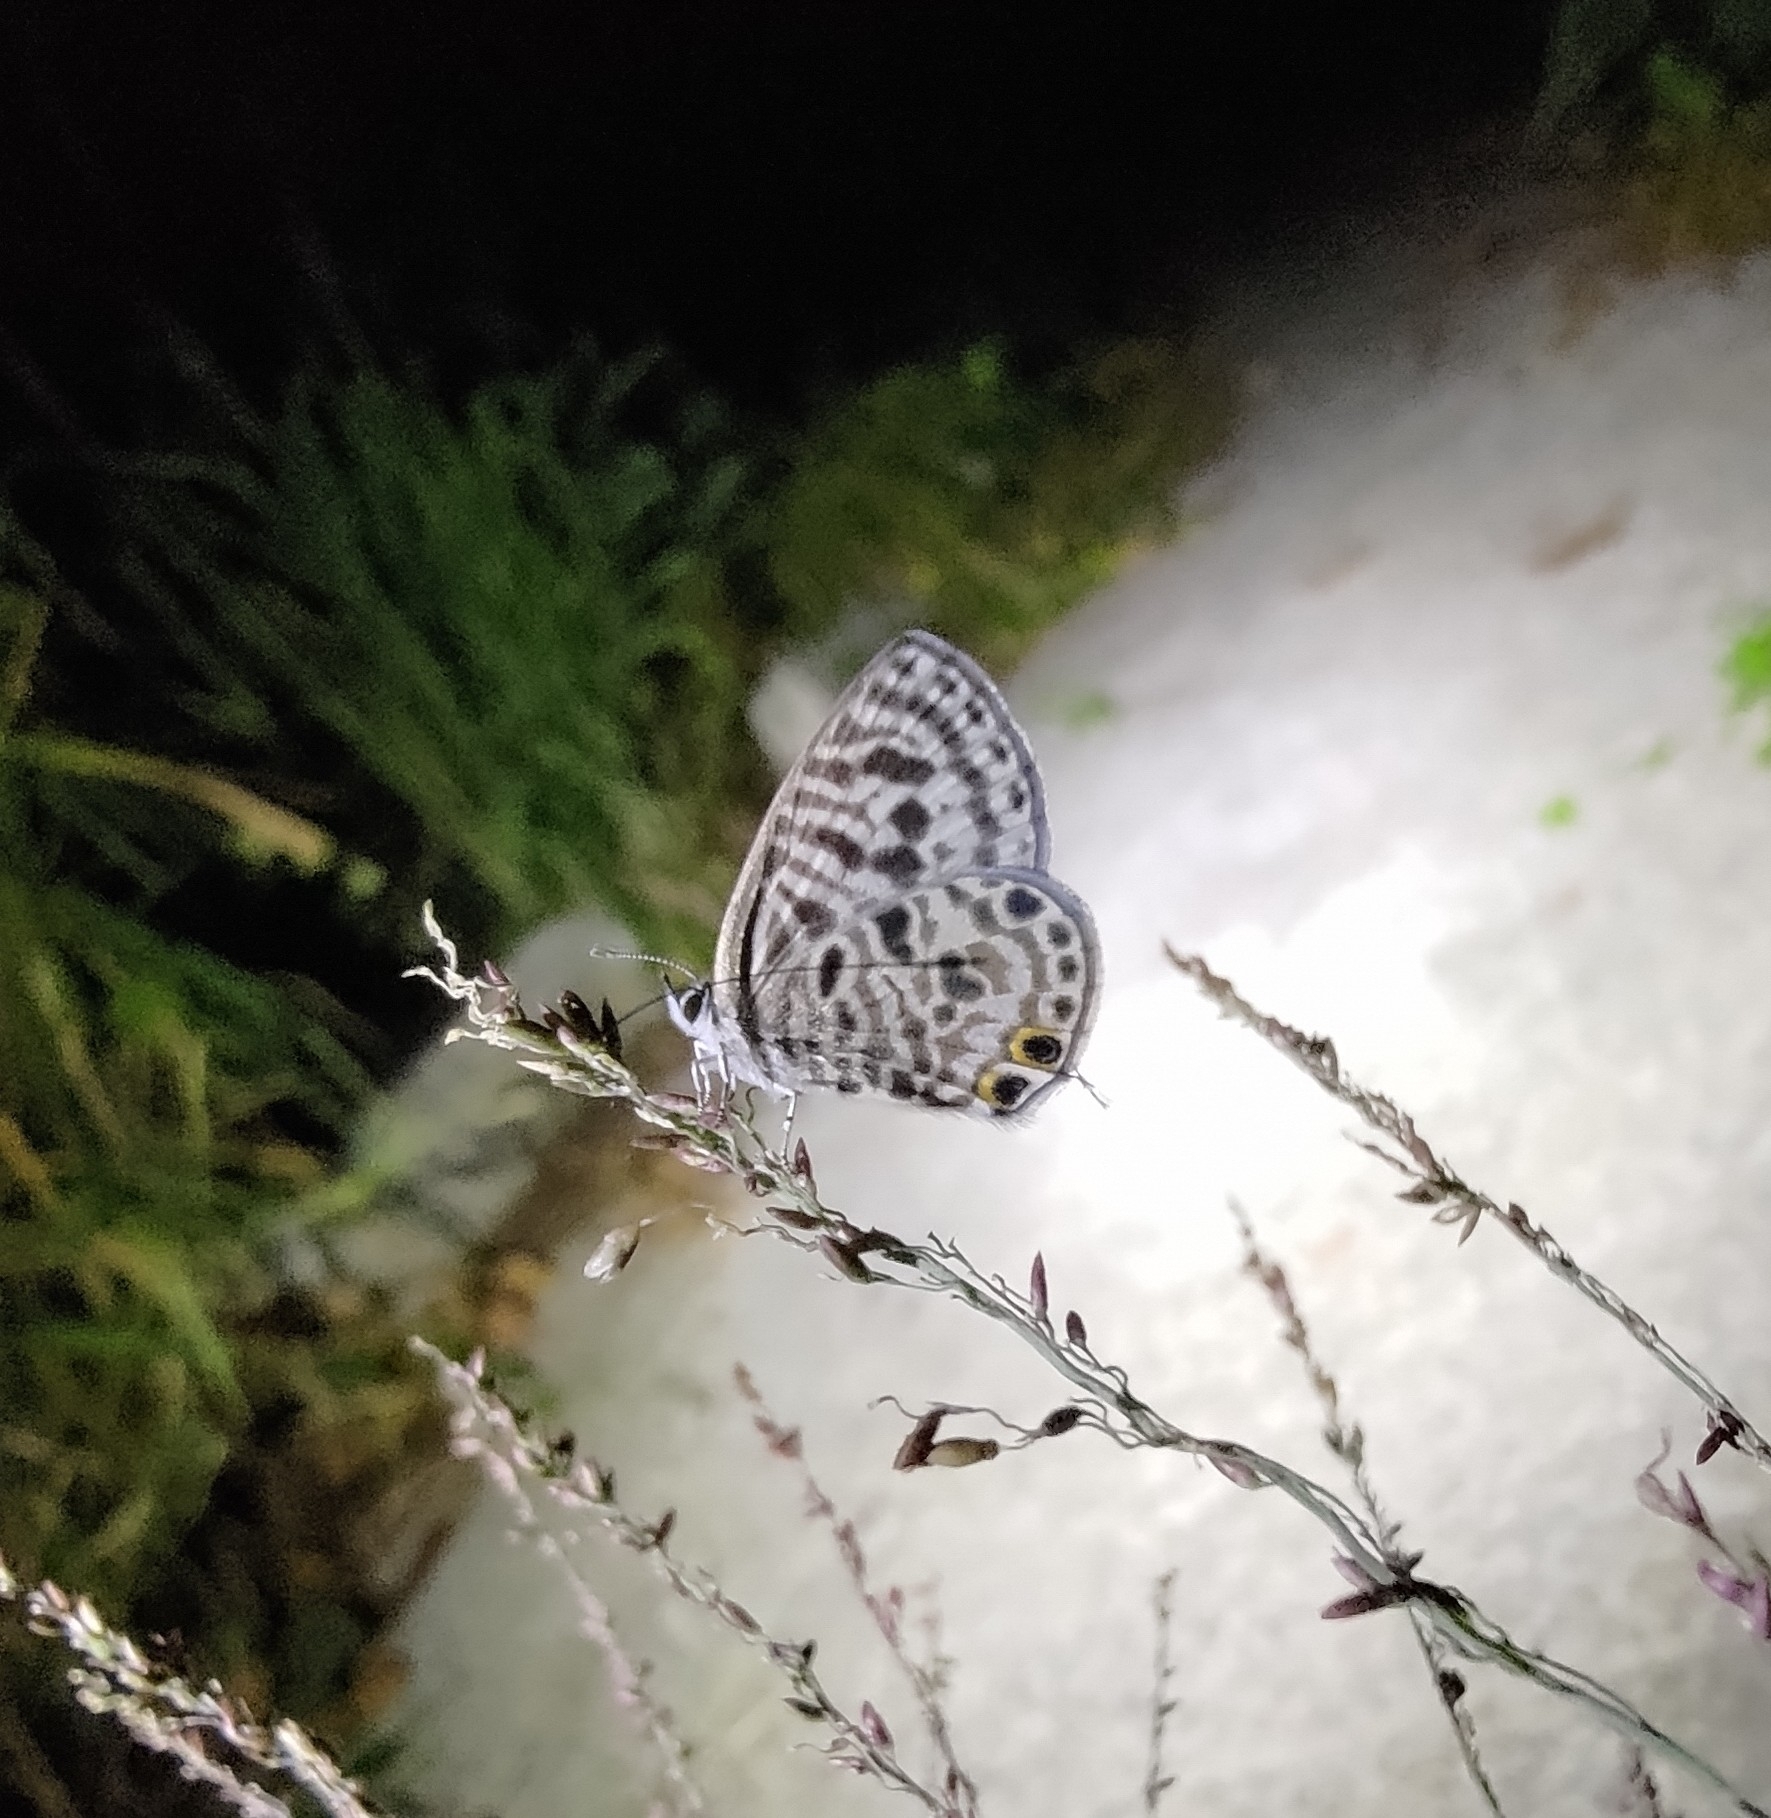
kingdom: Animalia
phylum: Arthropoda
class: Insecta
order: Lepidoptera
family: Lycaenidae
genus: Leptotes
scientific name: Leptotes plinius
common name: Zebra blue
